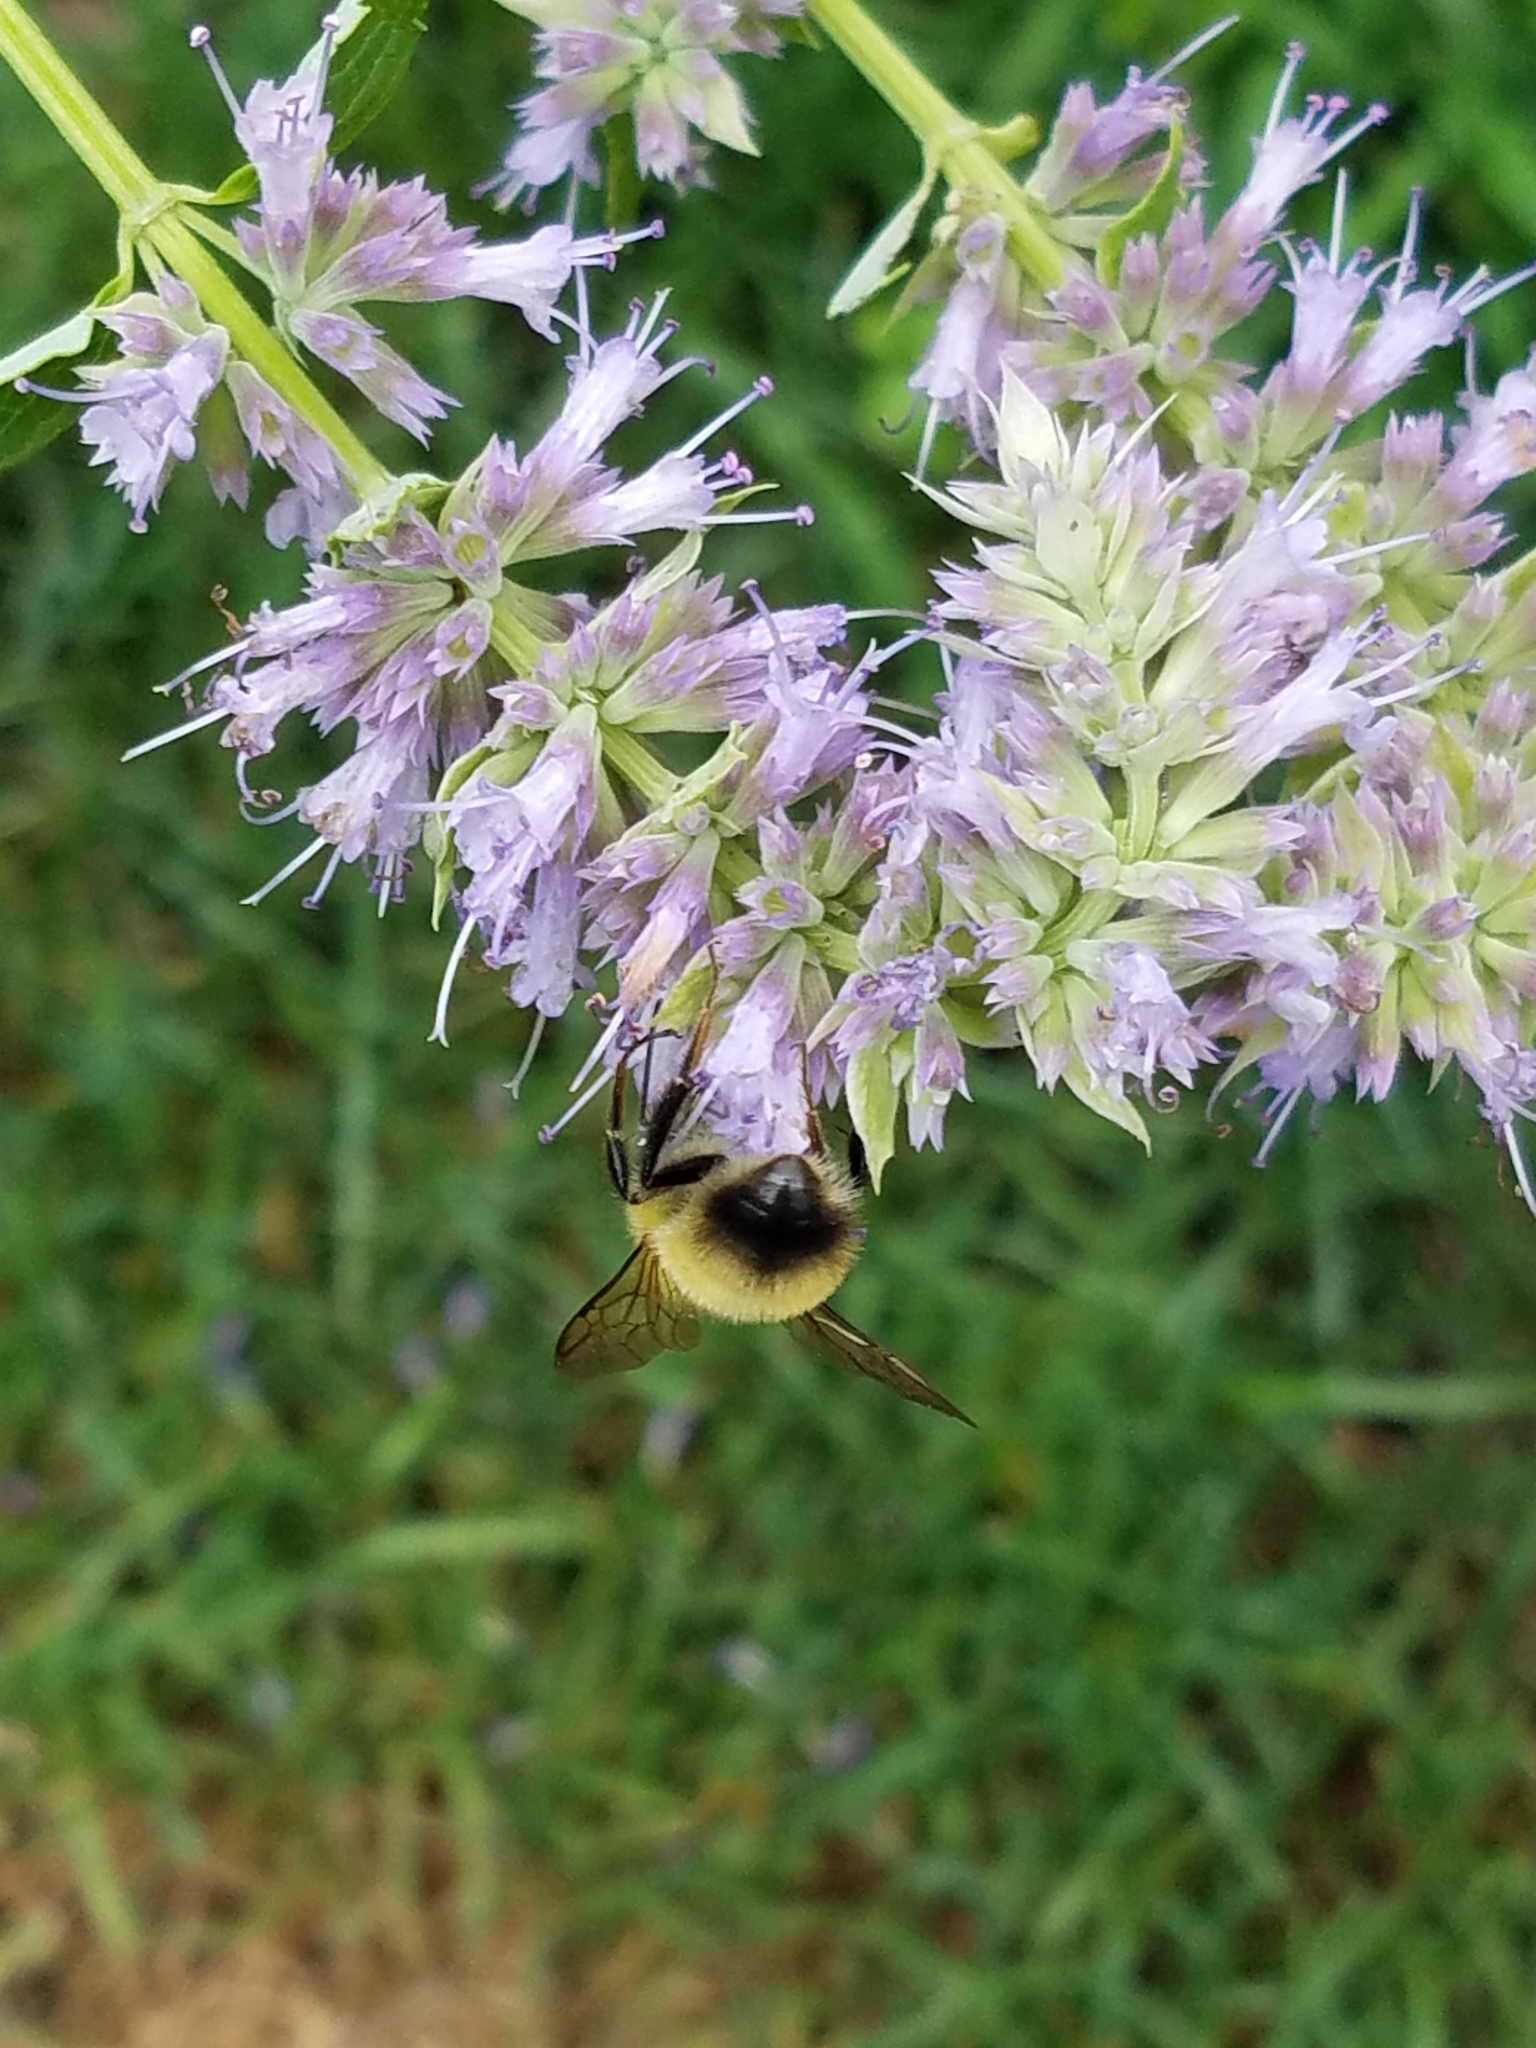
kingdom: Animalia
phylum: Arthropoda
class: Insecta
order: Hymenoptera
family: Apidae
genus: Bombus
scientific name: Bombus perplexus
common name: Confusing bumble bee
